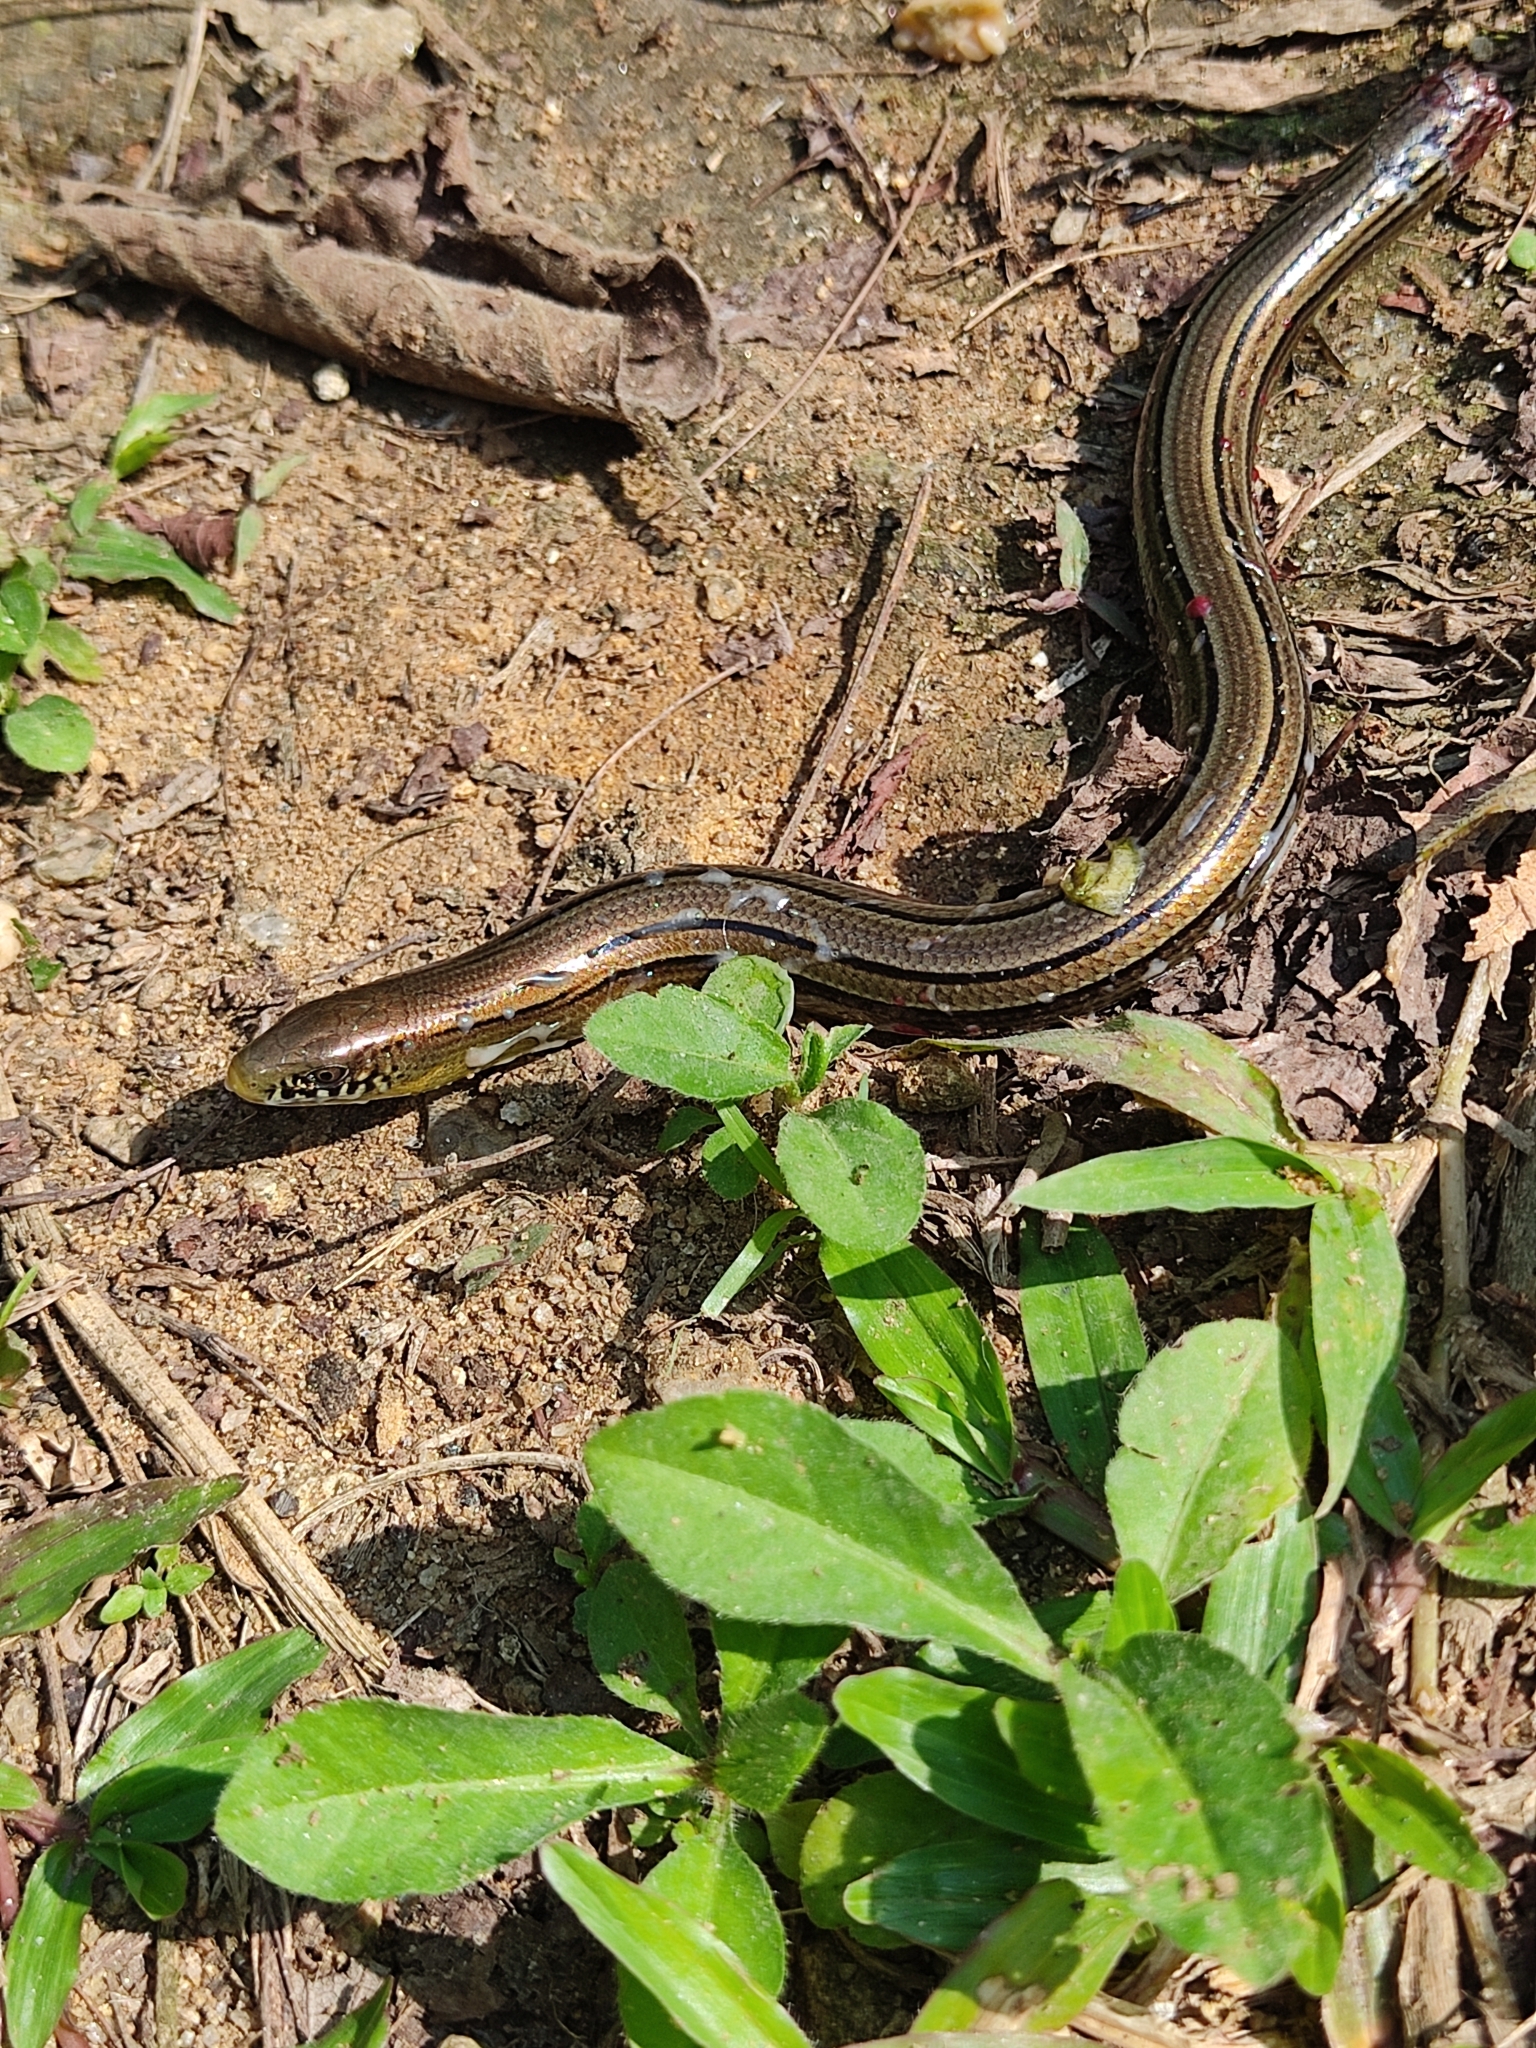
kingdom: Animalia
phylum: Chordata
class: Squamata
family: Diploglossidae
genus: Ophiodes
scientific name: Ophiodes striatus
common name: Striped worm lizard
